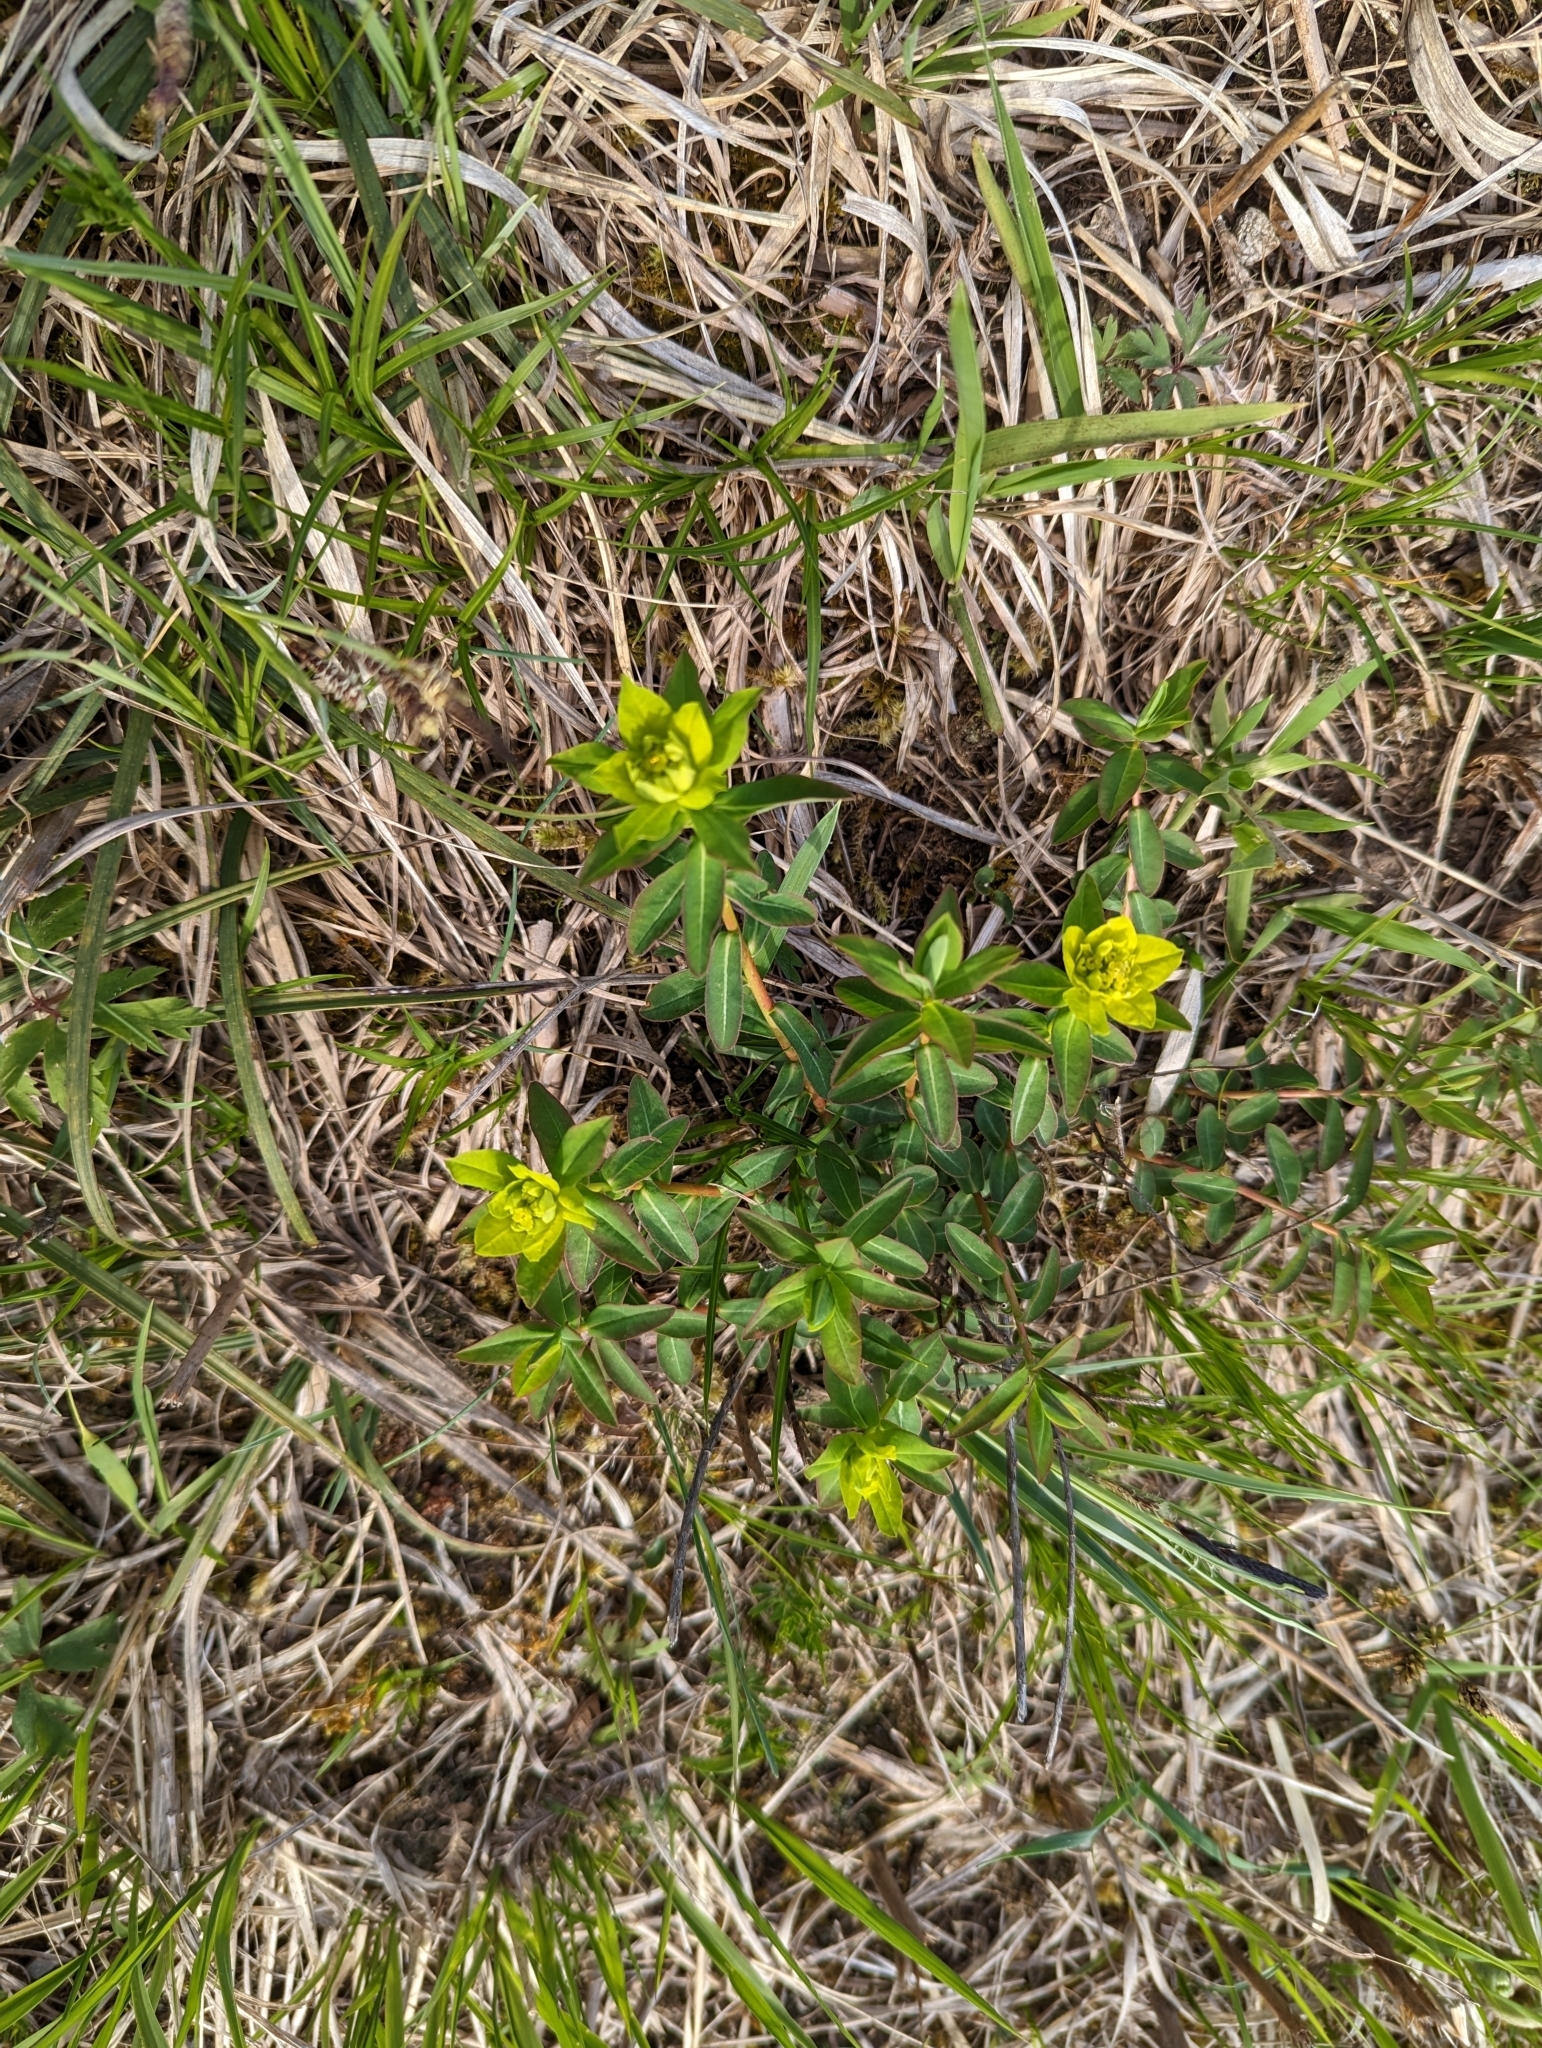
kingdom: Plantae
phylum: Tracheophyta
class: Magnoliopsida
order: Malpighiales
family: Euphorbiaceae
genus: Euphorbia
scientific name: Euphorbia verrucosa
